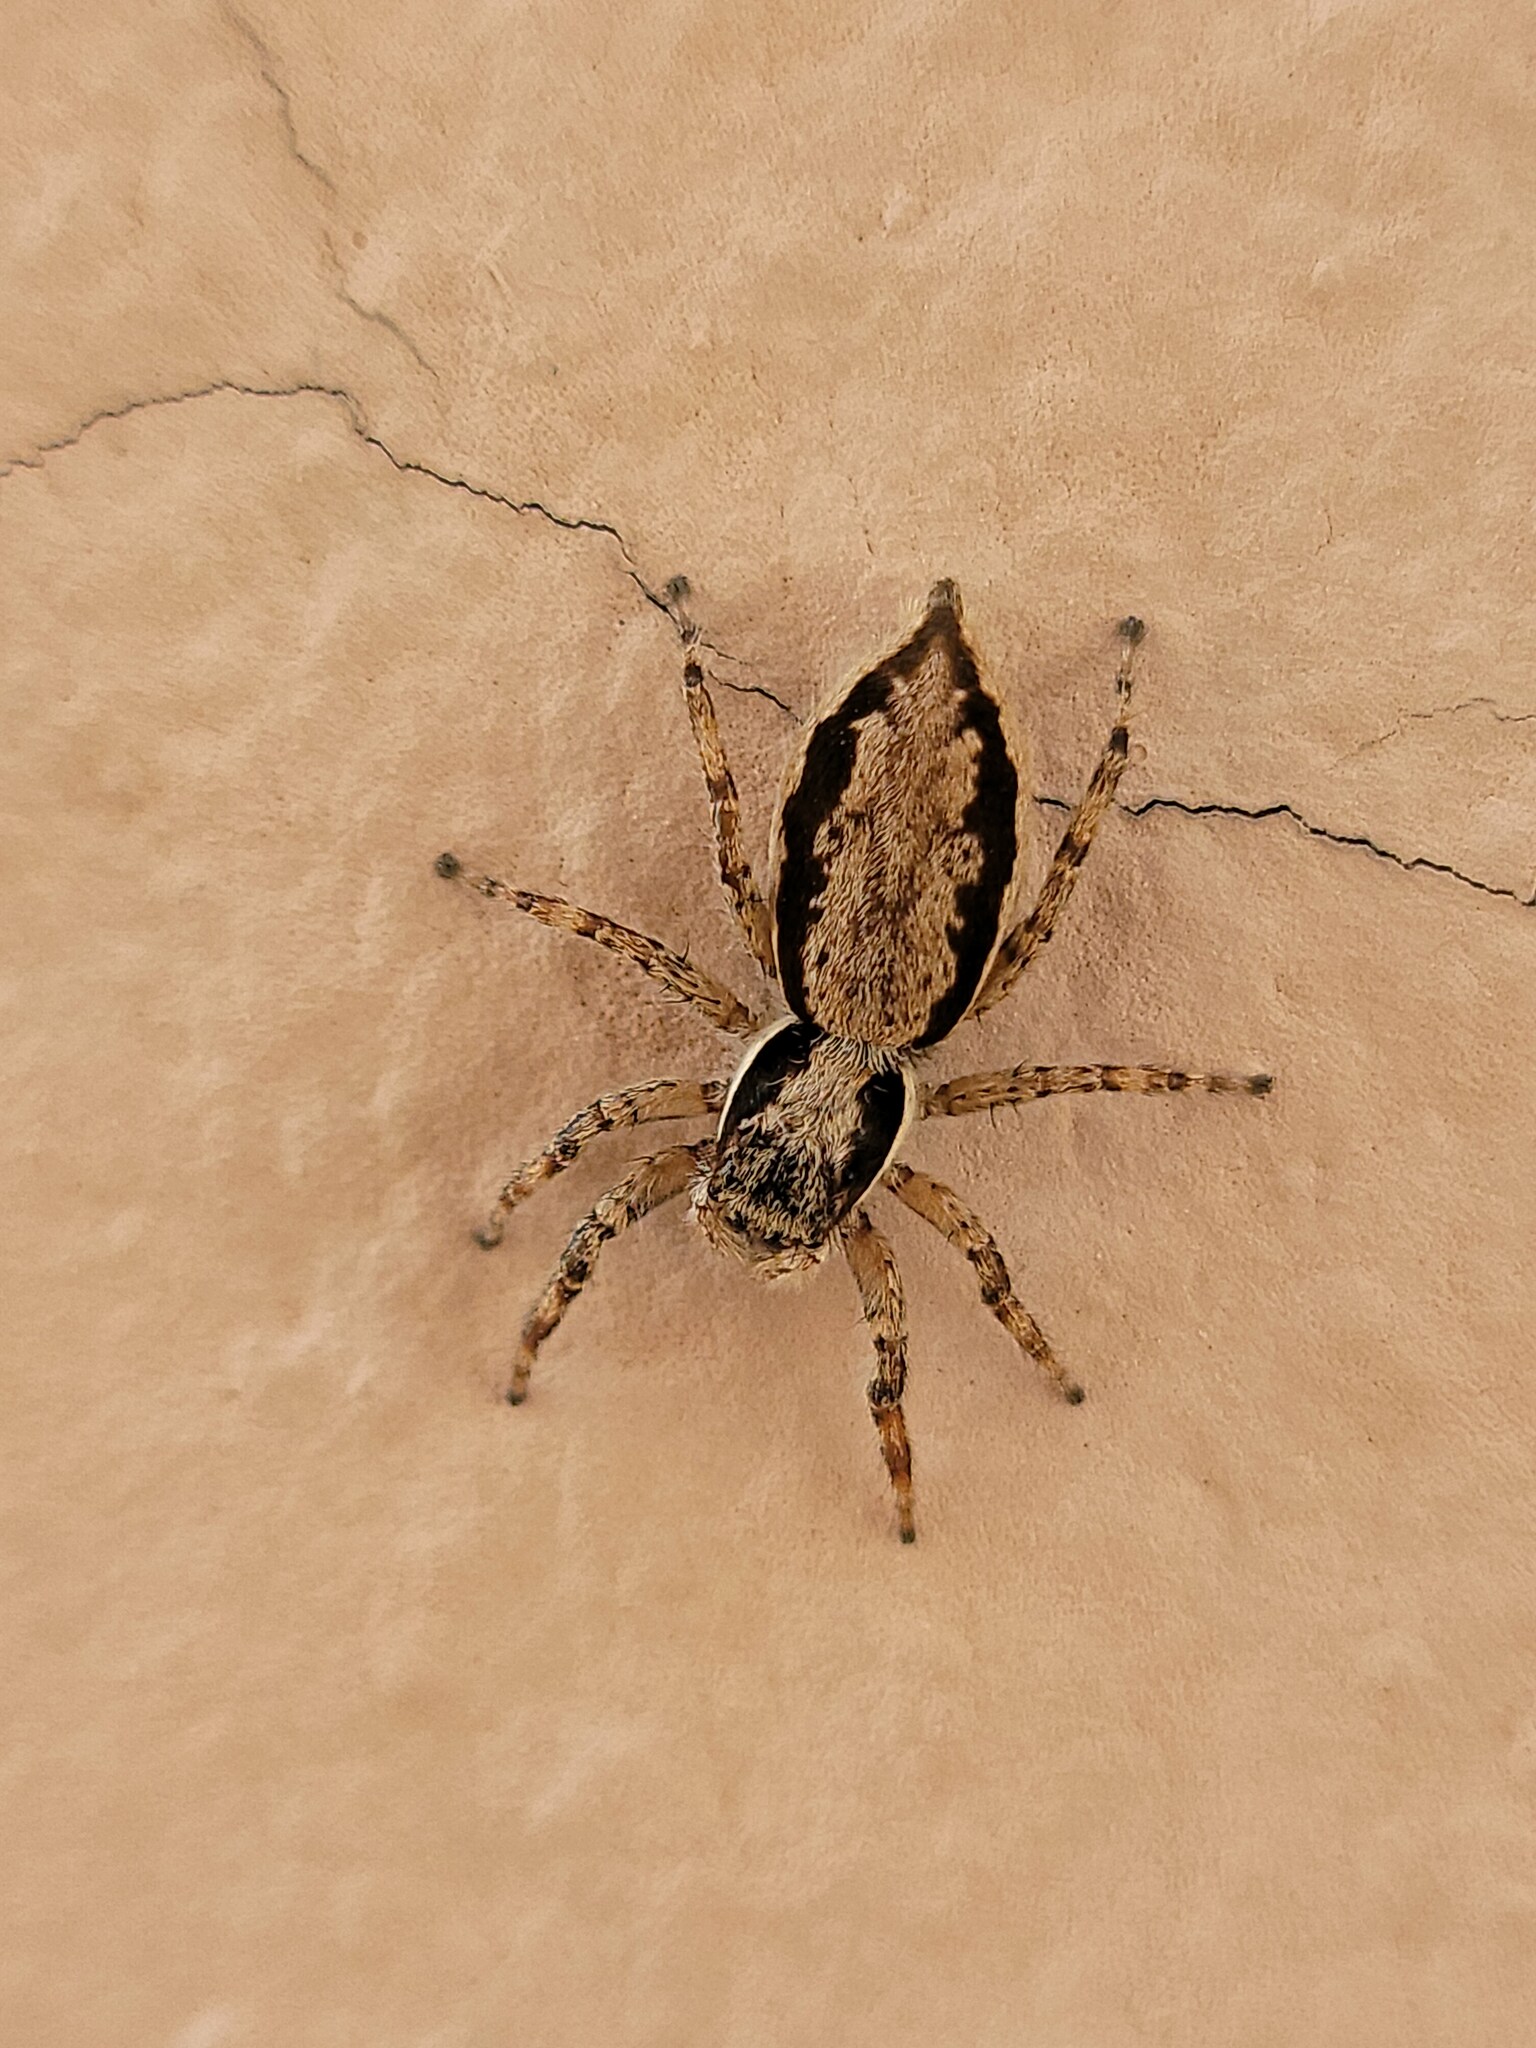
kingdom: Animalia
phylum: Arthropoda
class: Arachnida
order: Araneae
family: Salticidae
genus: Menemerus
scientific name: Menemerus bivittatus
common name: Gray wall jumper
